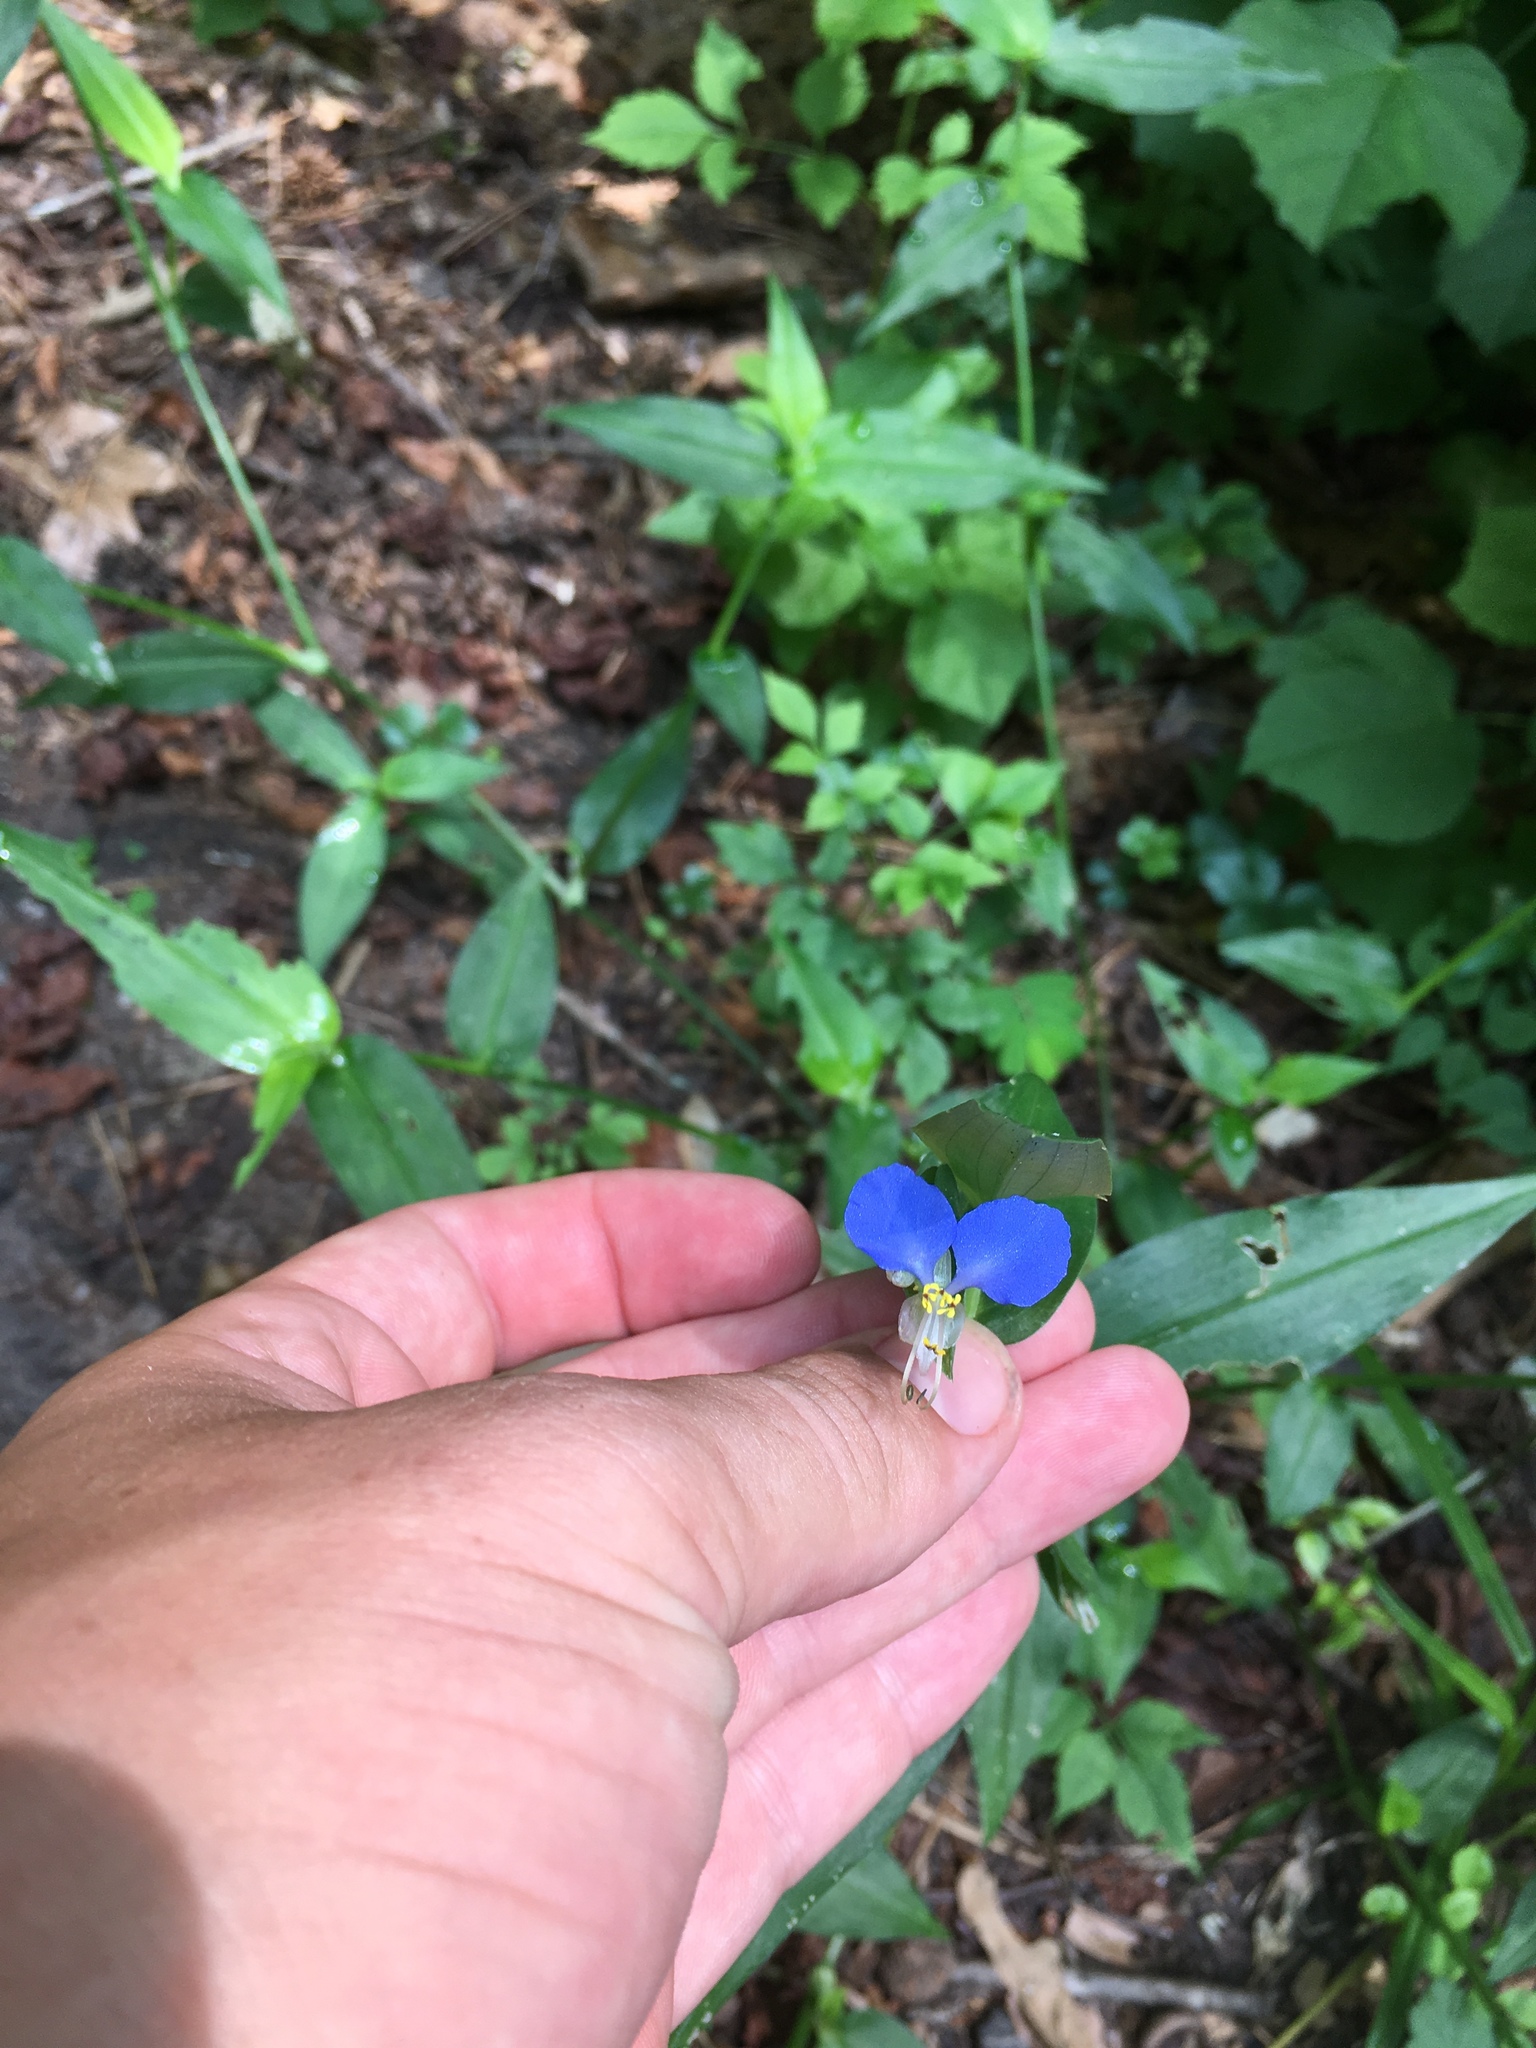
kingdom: Plantae
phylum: Tracheophyta
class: Liliopsida
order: Commelinales
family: Commelinaceae
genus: Commelina
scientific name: Commelina communis
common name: Asiatic dayflower
